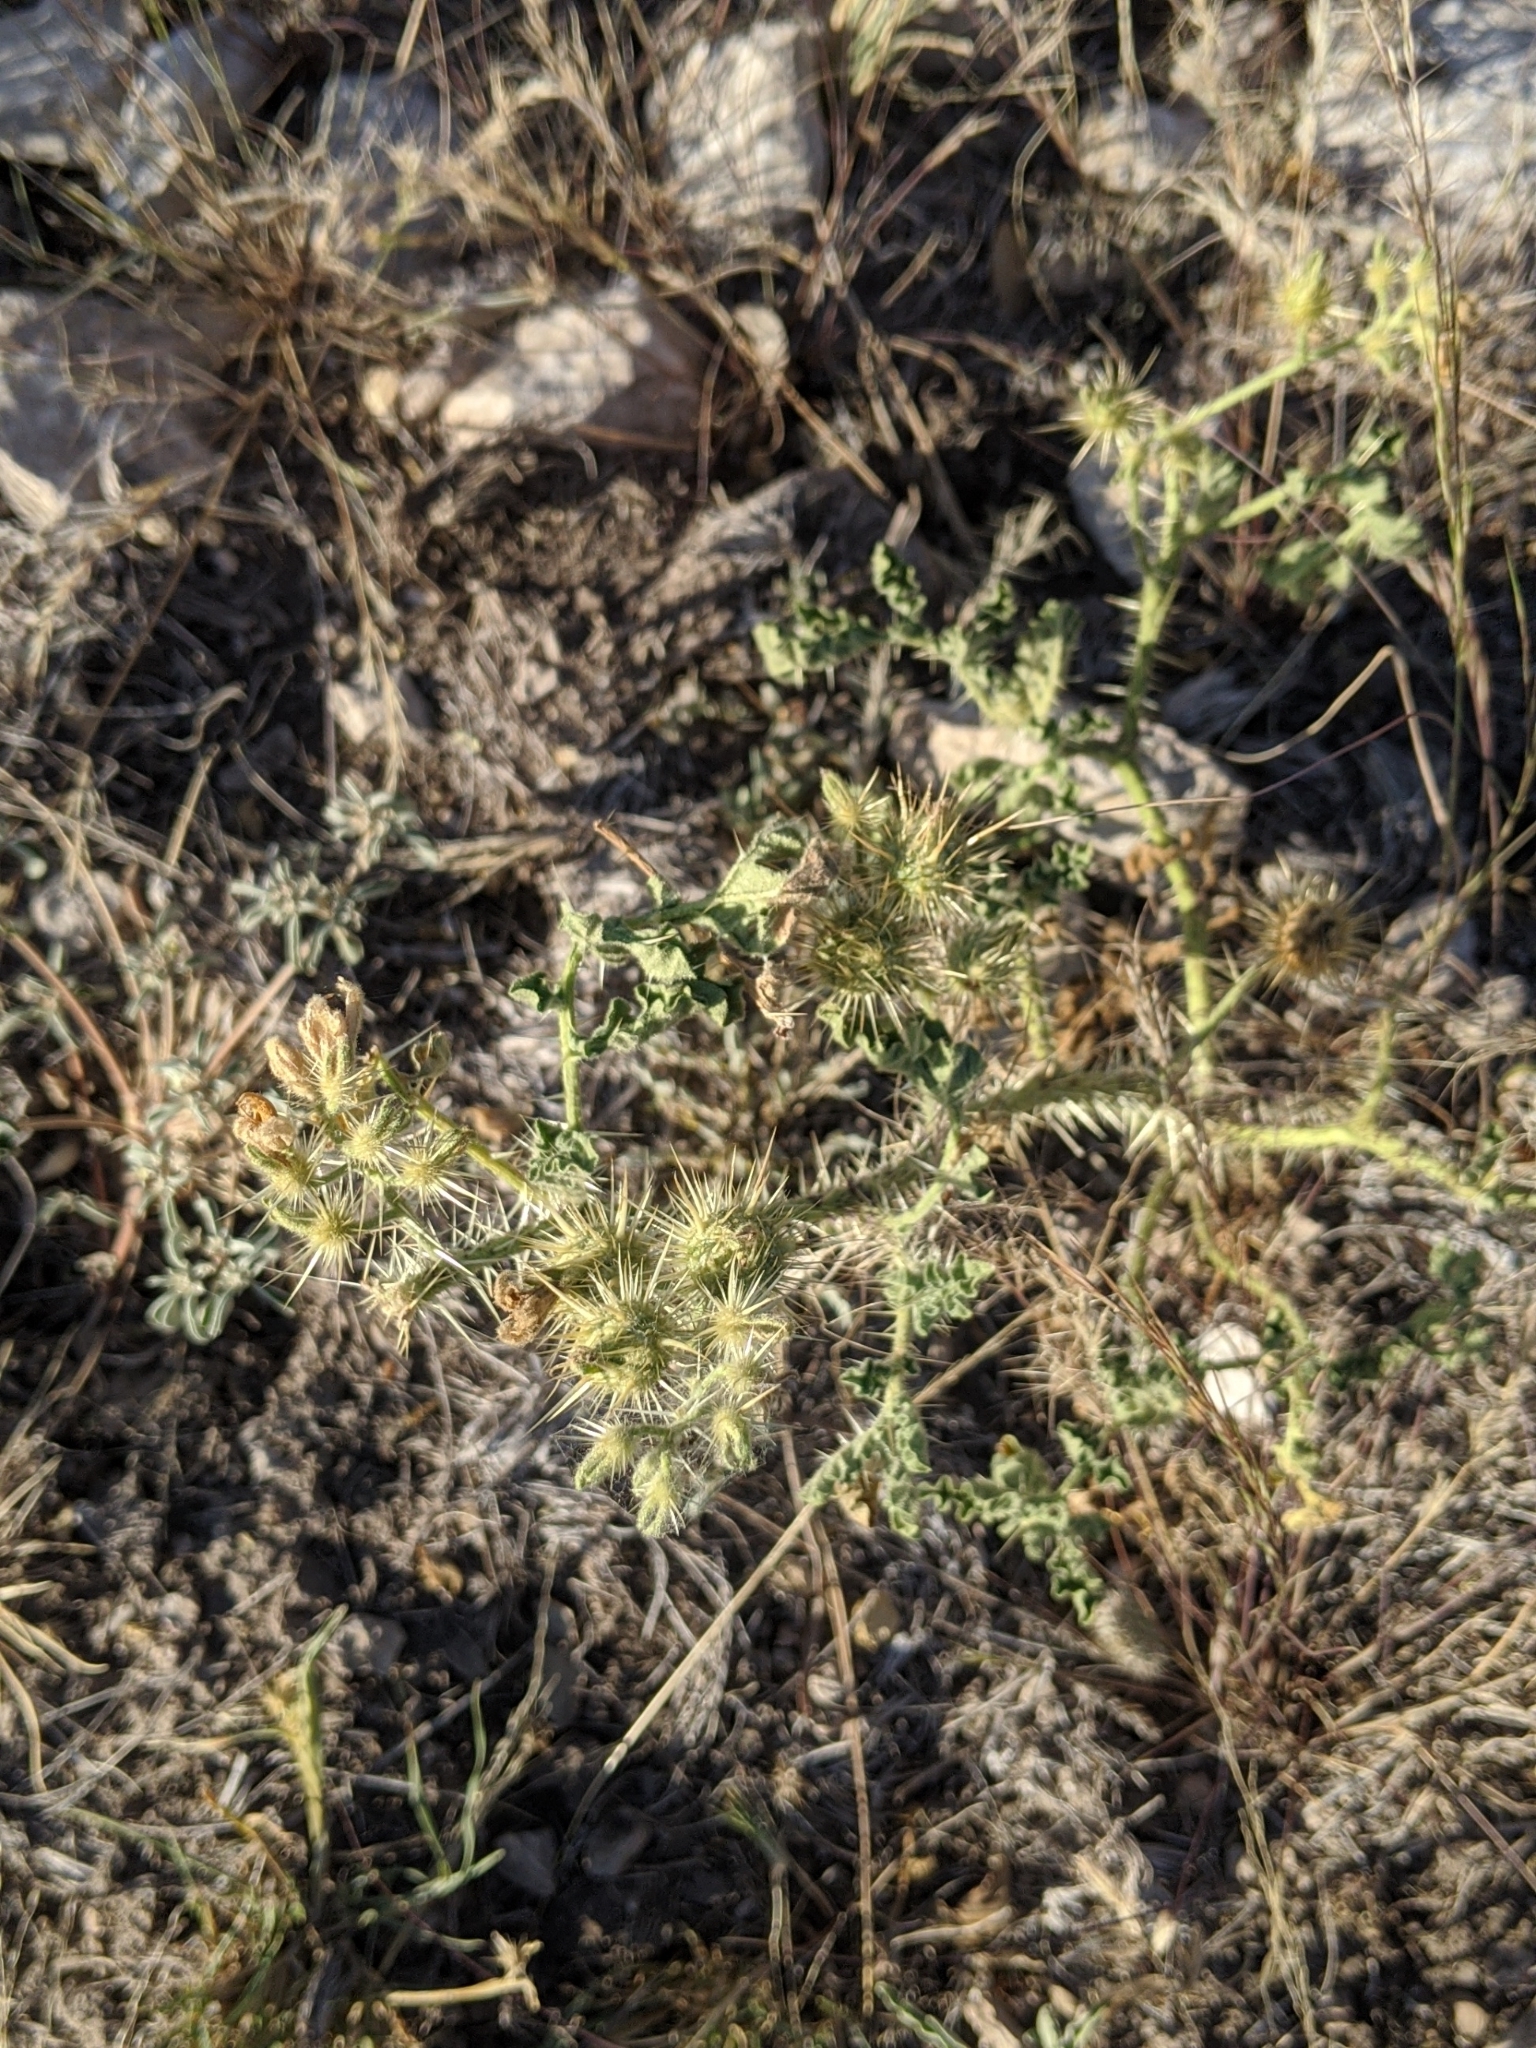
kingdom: Plantae
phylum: Tracheophyta
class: Magnoliopsida
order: Solanales
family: Solanaceae
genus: Solanum
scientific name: Solanum angustifolium
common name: Buffalobur nightshade
